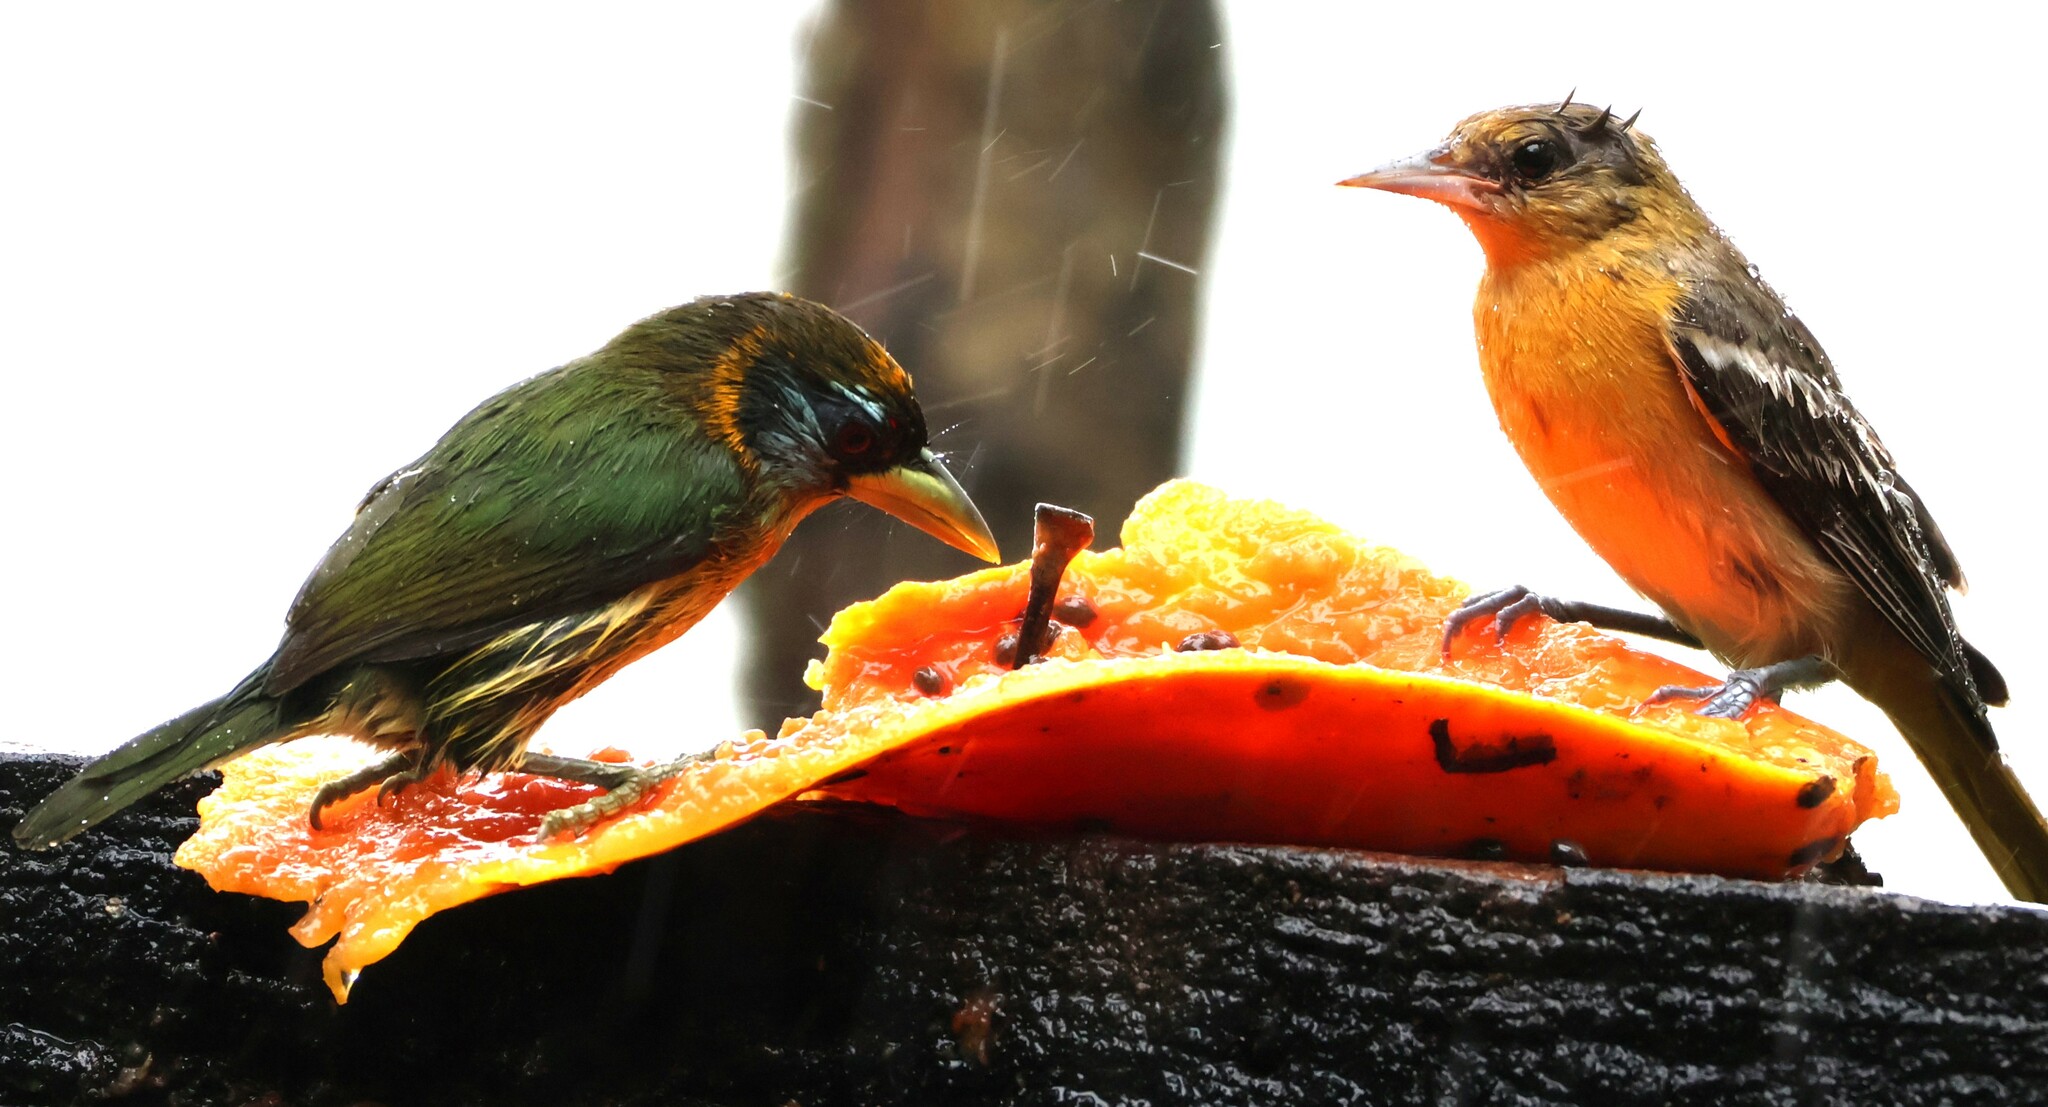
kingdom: Animalia
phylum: Chordata
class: Aves
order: Passeriformes
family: Icteridae
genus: Icterus
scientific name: Icterus galbula
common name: Baltimore oriole
